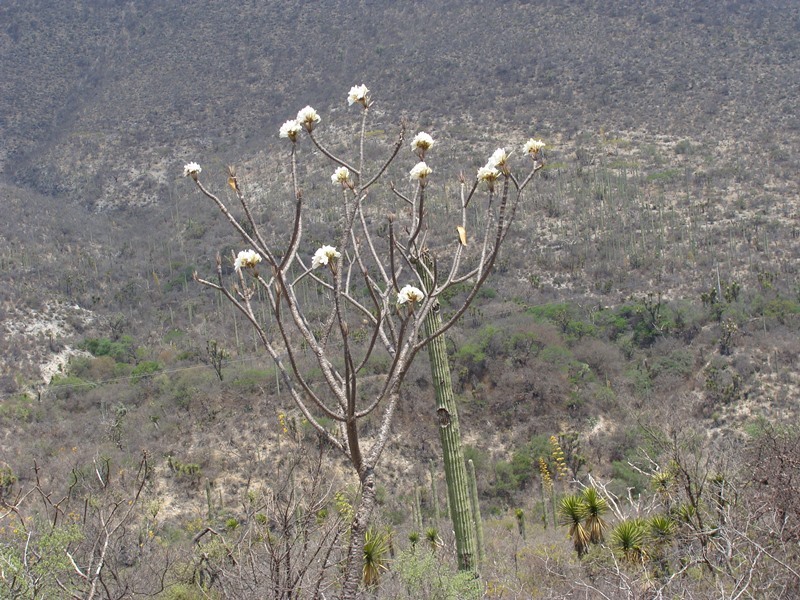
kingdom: Plantae
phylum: Tracheophyta
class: Magnoliopsida
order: Gentianales
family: Apocynaceae
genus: Plumeria
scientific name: Plumeria rubra
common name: Pagoda-tree
